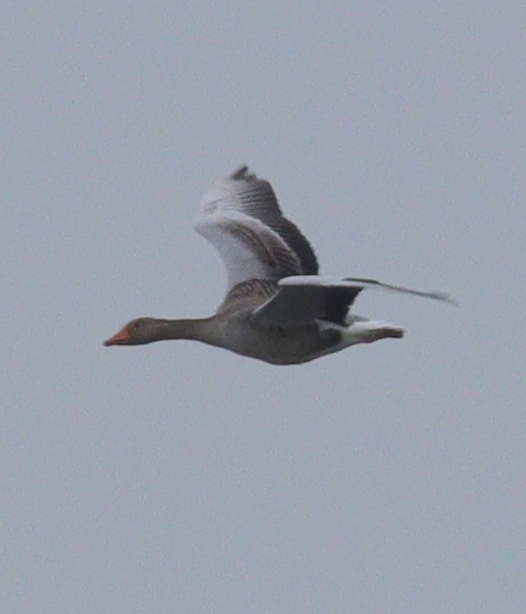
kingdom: Animalia
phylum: Chordata
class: Aves
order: Anseriformes
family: Anatidae
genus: Anser
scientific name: Anser anser
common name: Greylag goose
